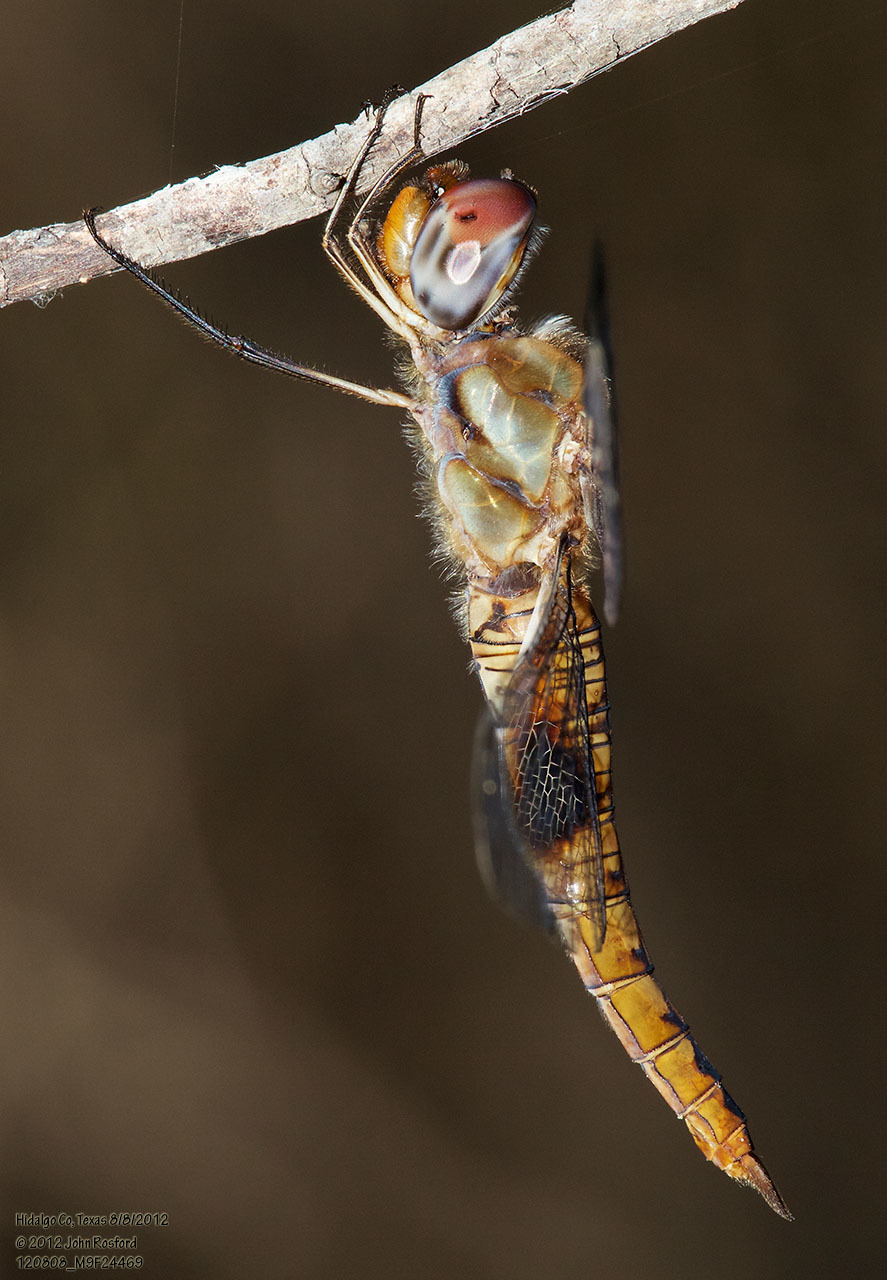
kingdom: Animalia
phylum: Arthropoda
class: Insecta
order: Odonata
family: Libellulidae
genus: Pantala
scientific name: Pantala hymenaea
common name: Spot-winged glider
